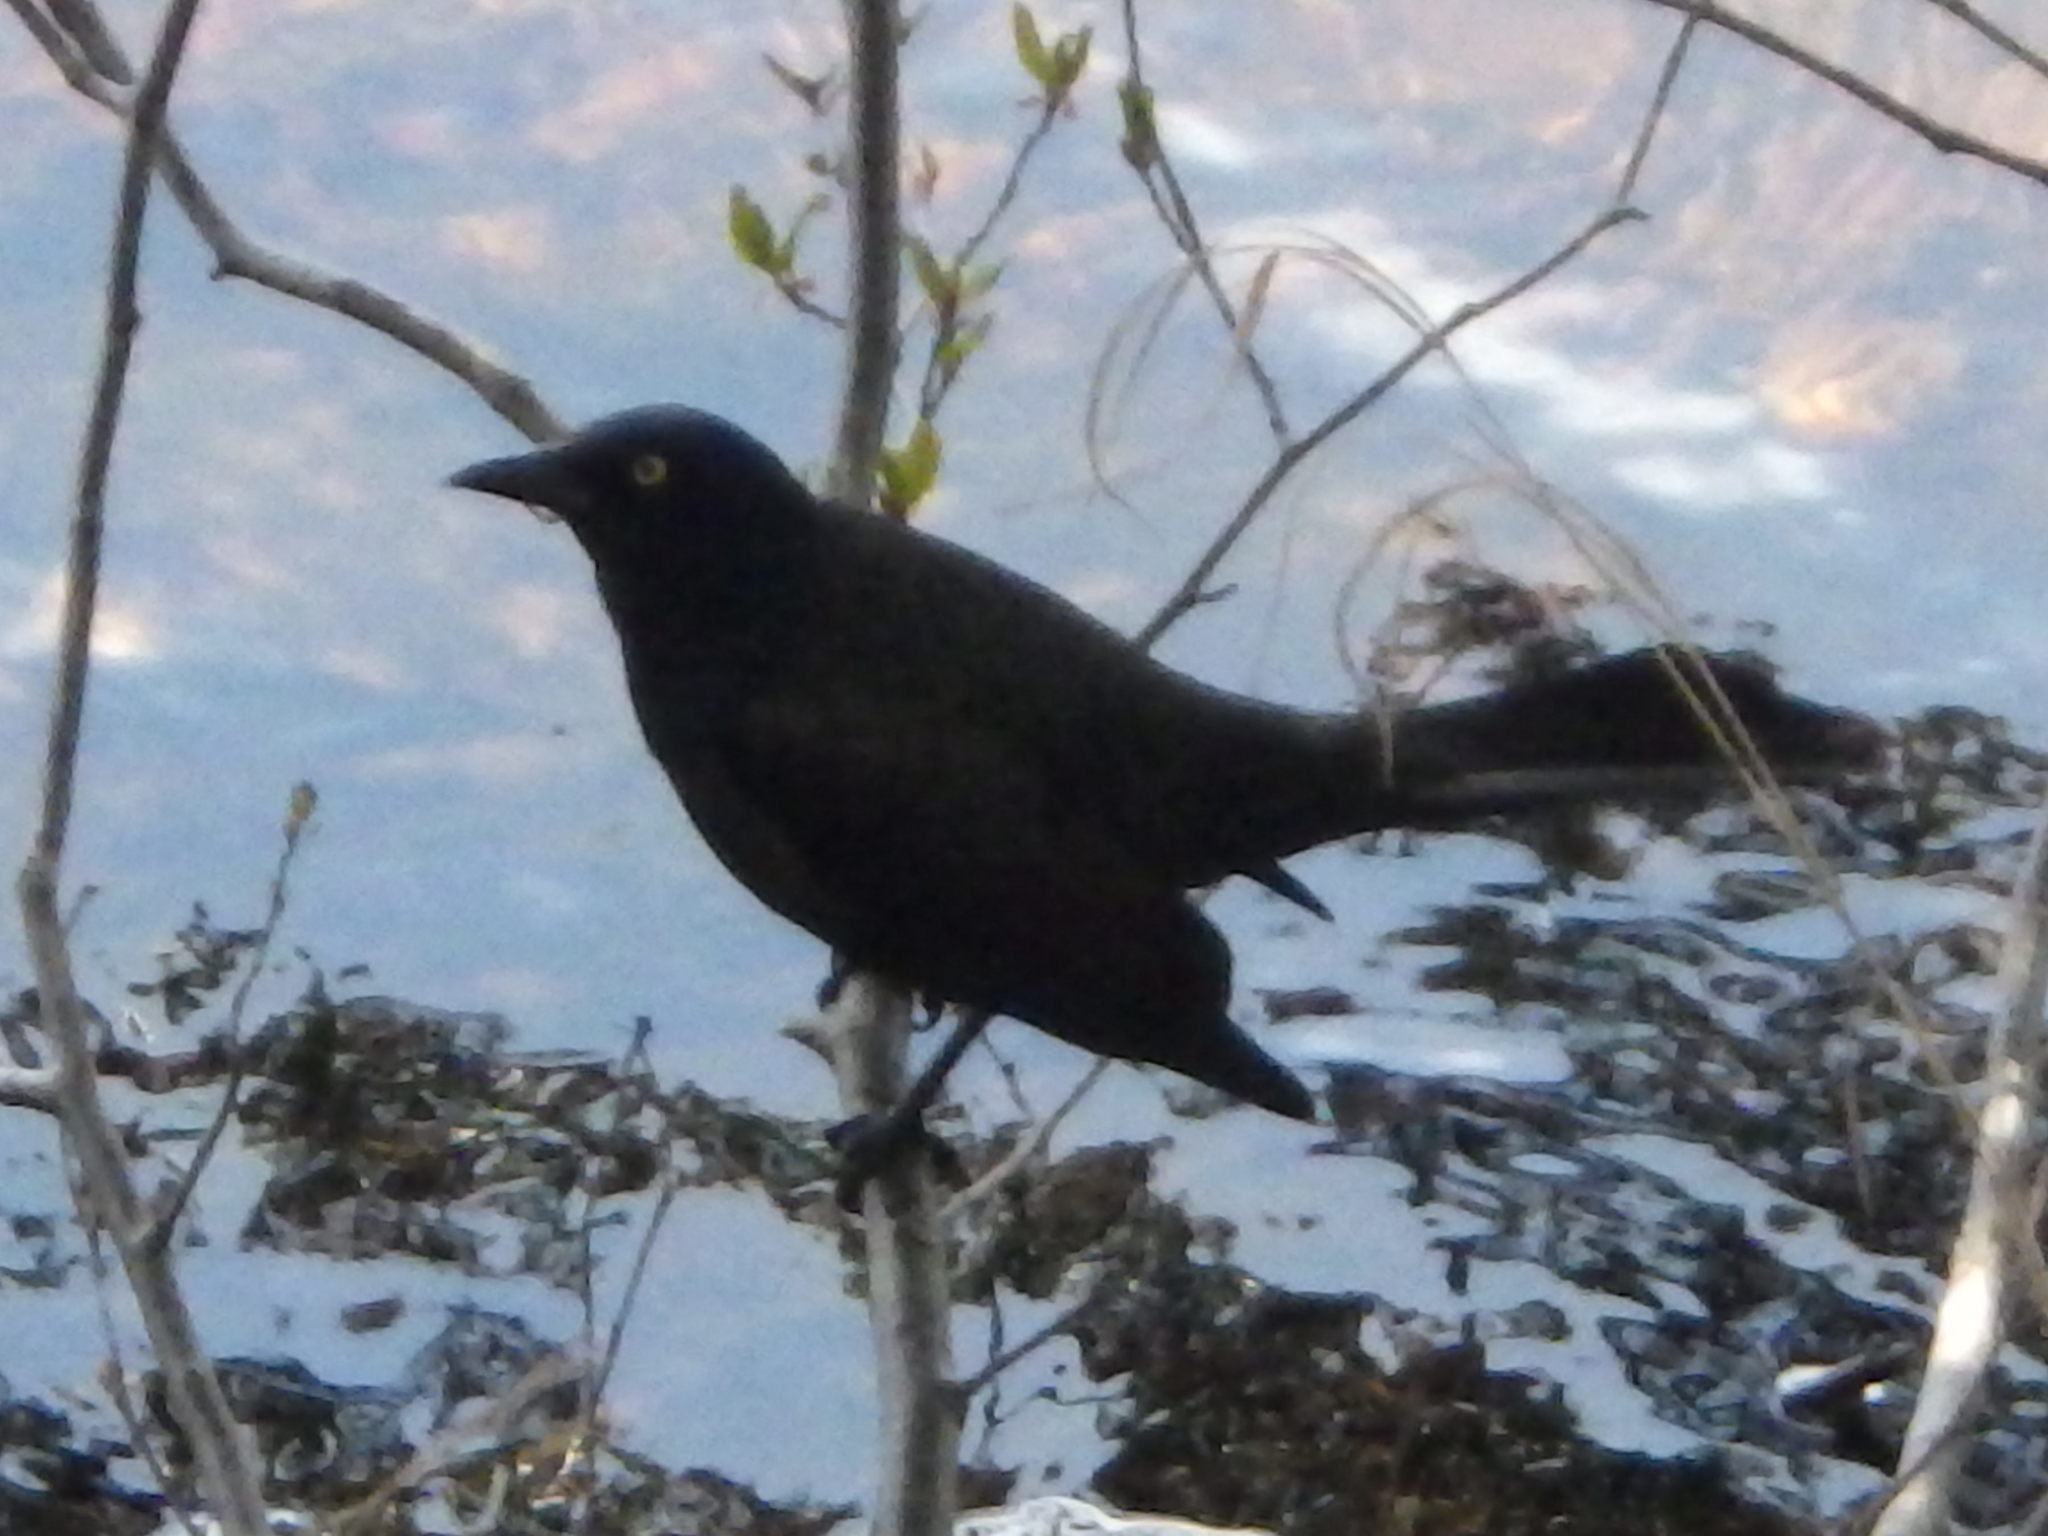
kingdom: Animalia
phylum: Chordata
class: Aves
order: Passeriformes
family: Icteridae
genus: Quiscalus
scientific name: Quiscalus quiscula
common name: Common grackle
